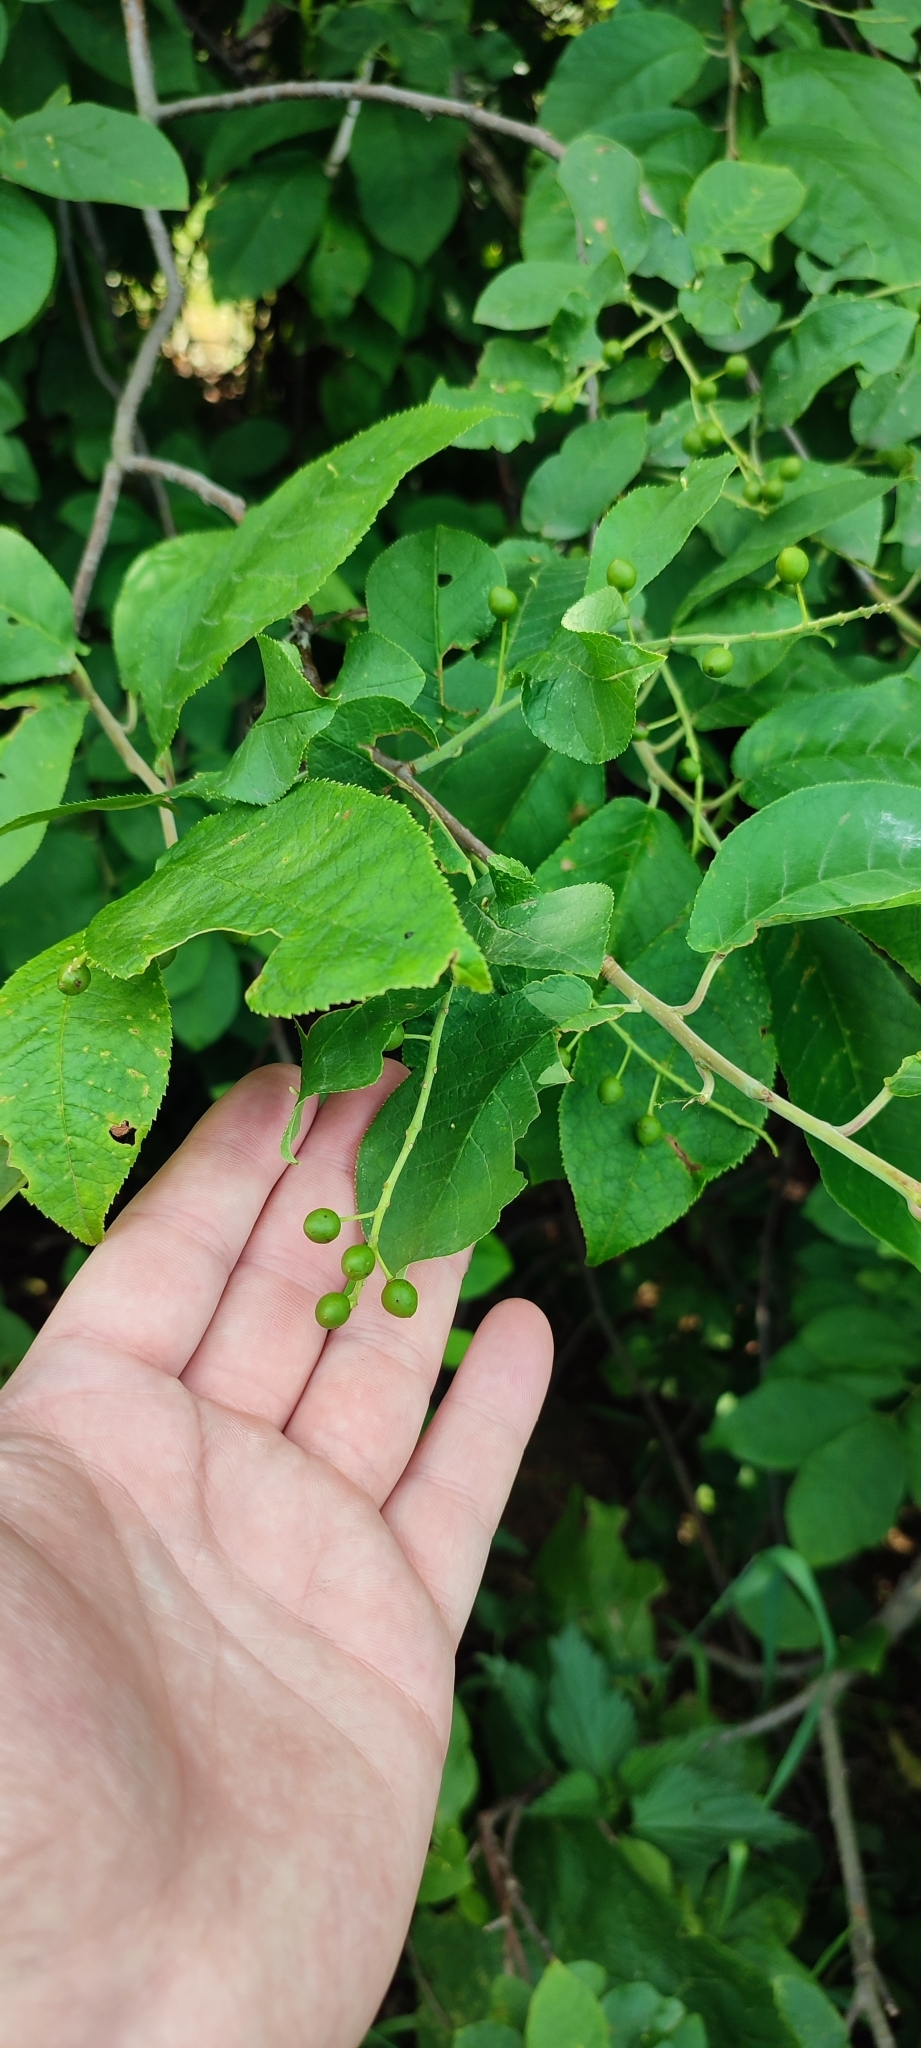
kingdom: Plantae
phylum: Tracheophyta
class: Magnoliopsida
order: Rosales
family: Rosaceae
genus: Prunus
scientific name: Prunus padus
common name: Bird cherry
